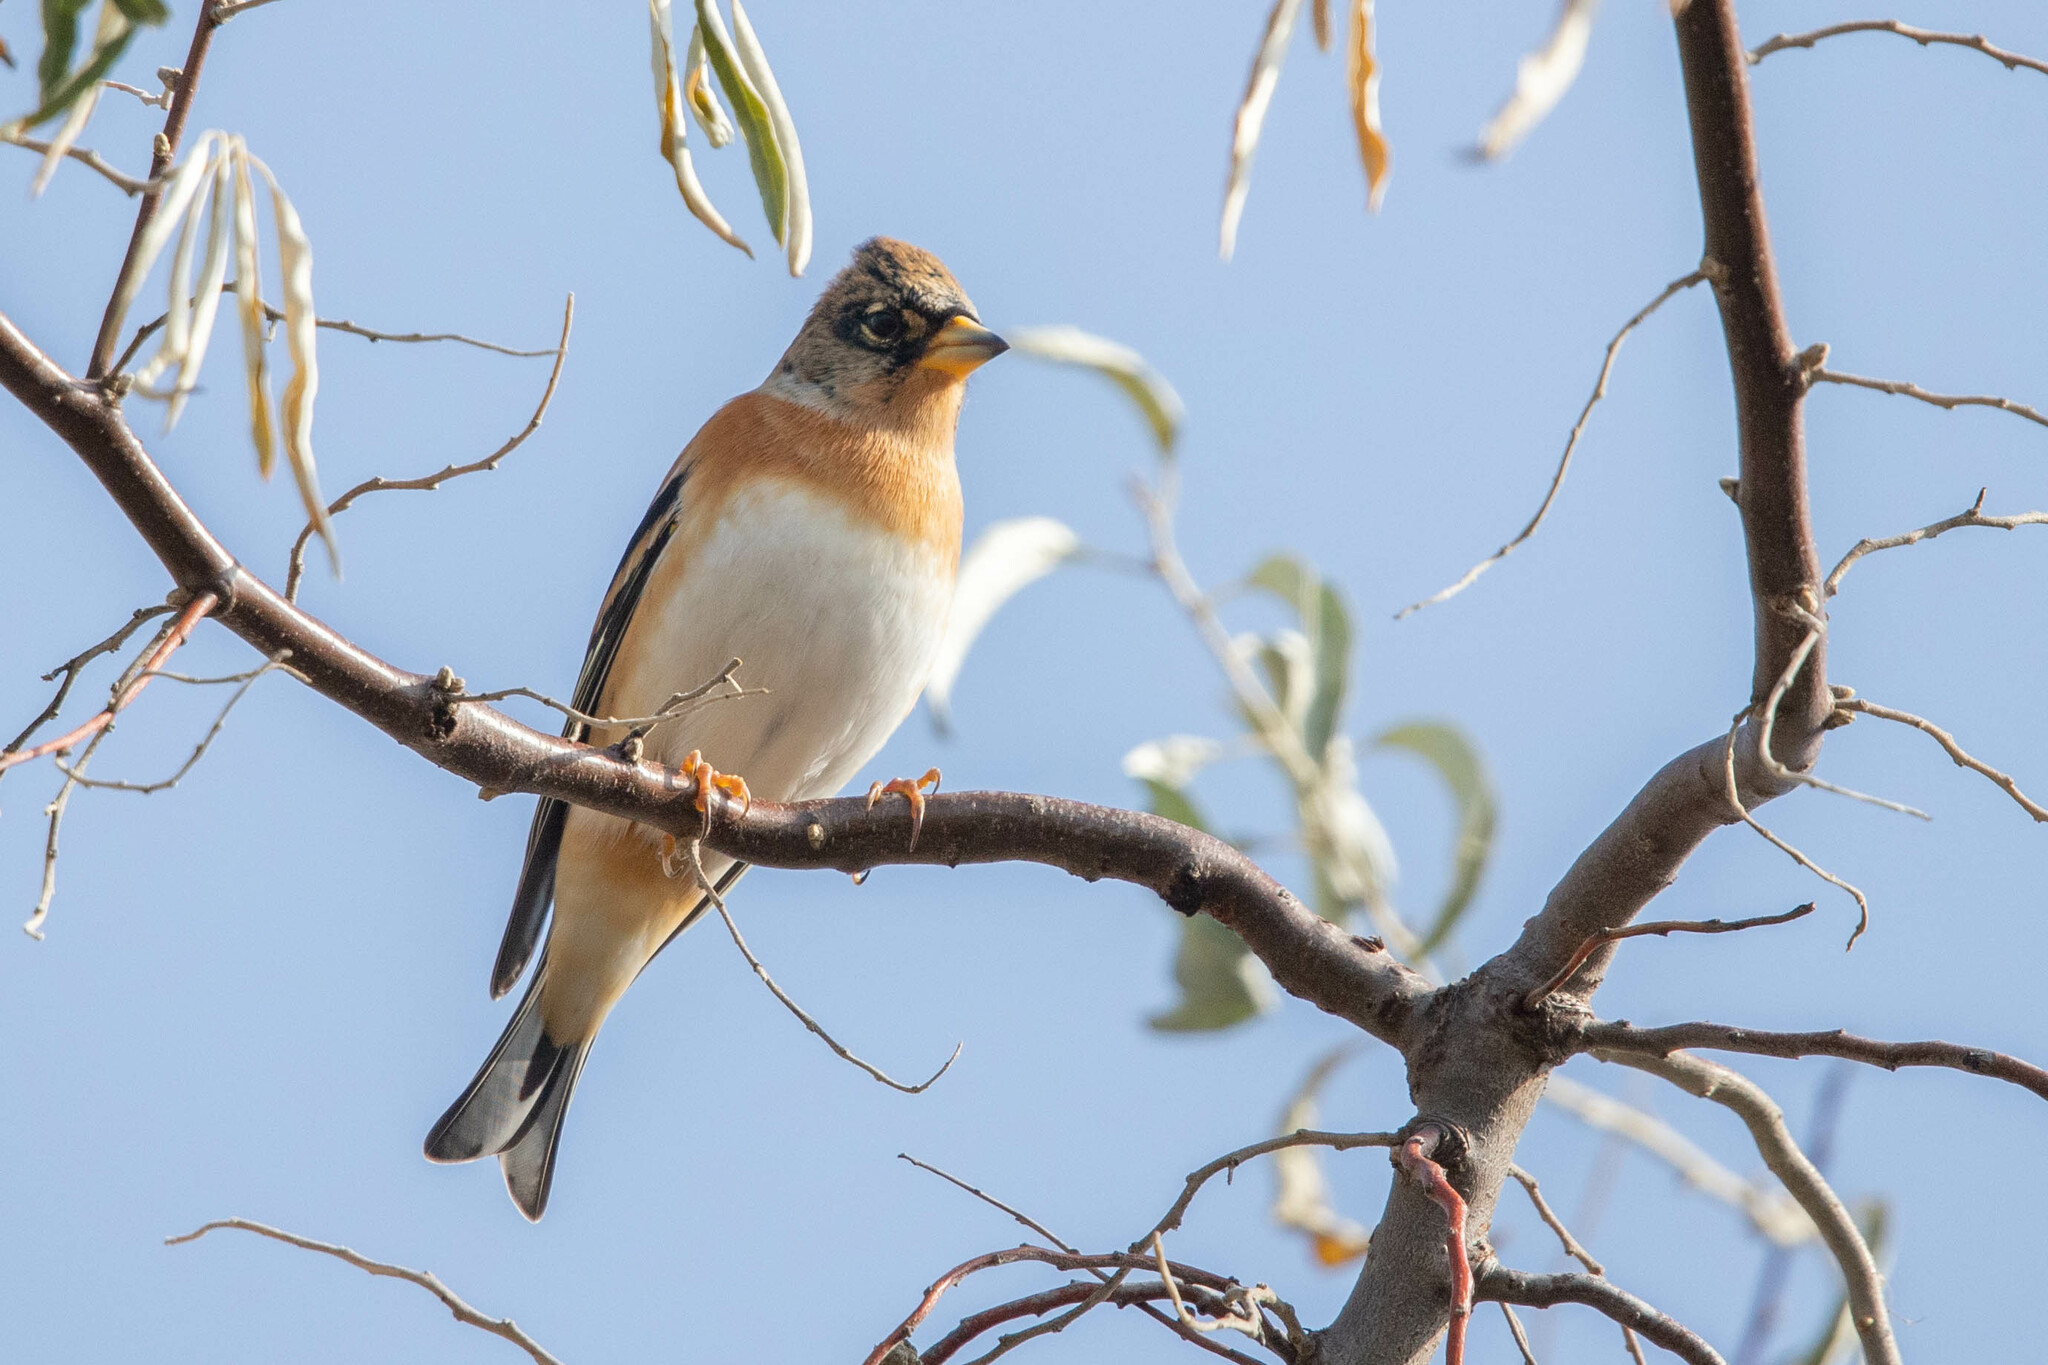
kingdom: Animalia
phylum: Chordata
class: Aves
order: Passeriformes
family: Fringillidae
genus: Fringilla
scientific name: Fringilla montifringilla
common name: Brambling
